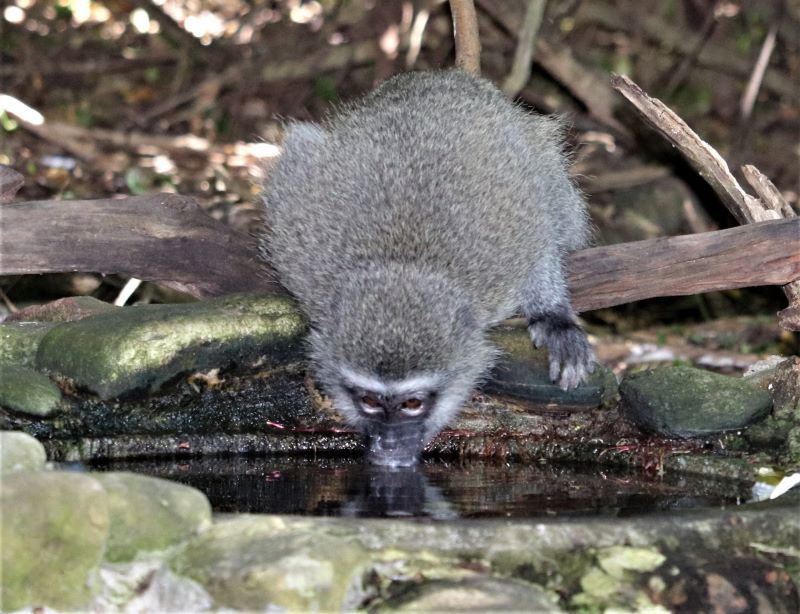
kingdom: Animalia
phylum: Chordata
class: Mammalia
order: Primates
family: Cercopithecidae
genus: Chlorocebus
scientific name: Chlorocebus pygerythrus
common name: Vervet monkey
